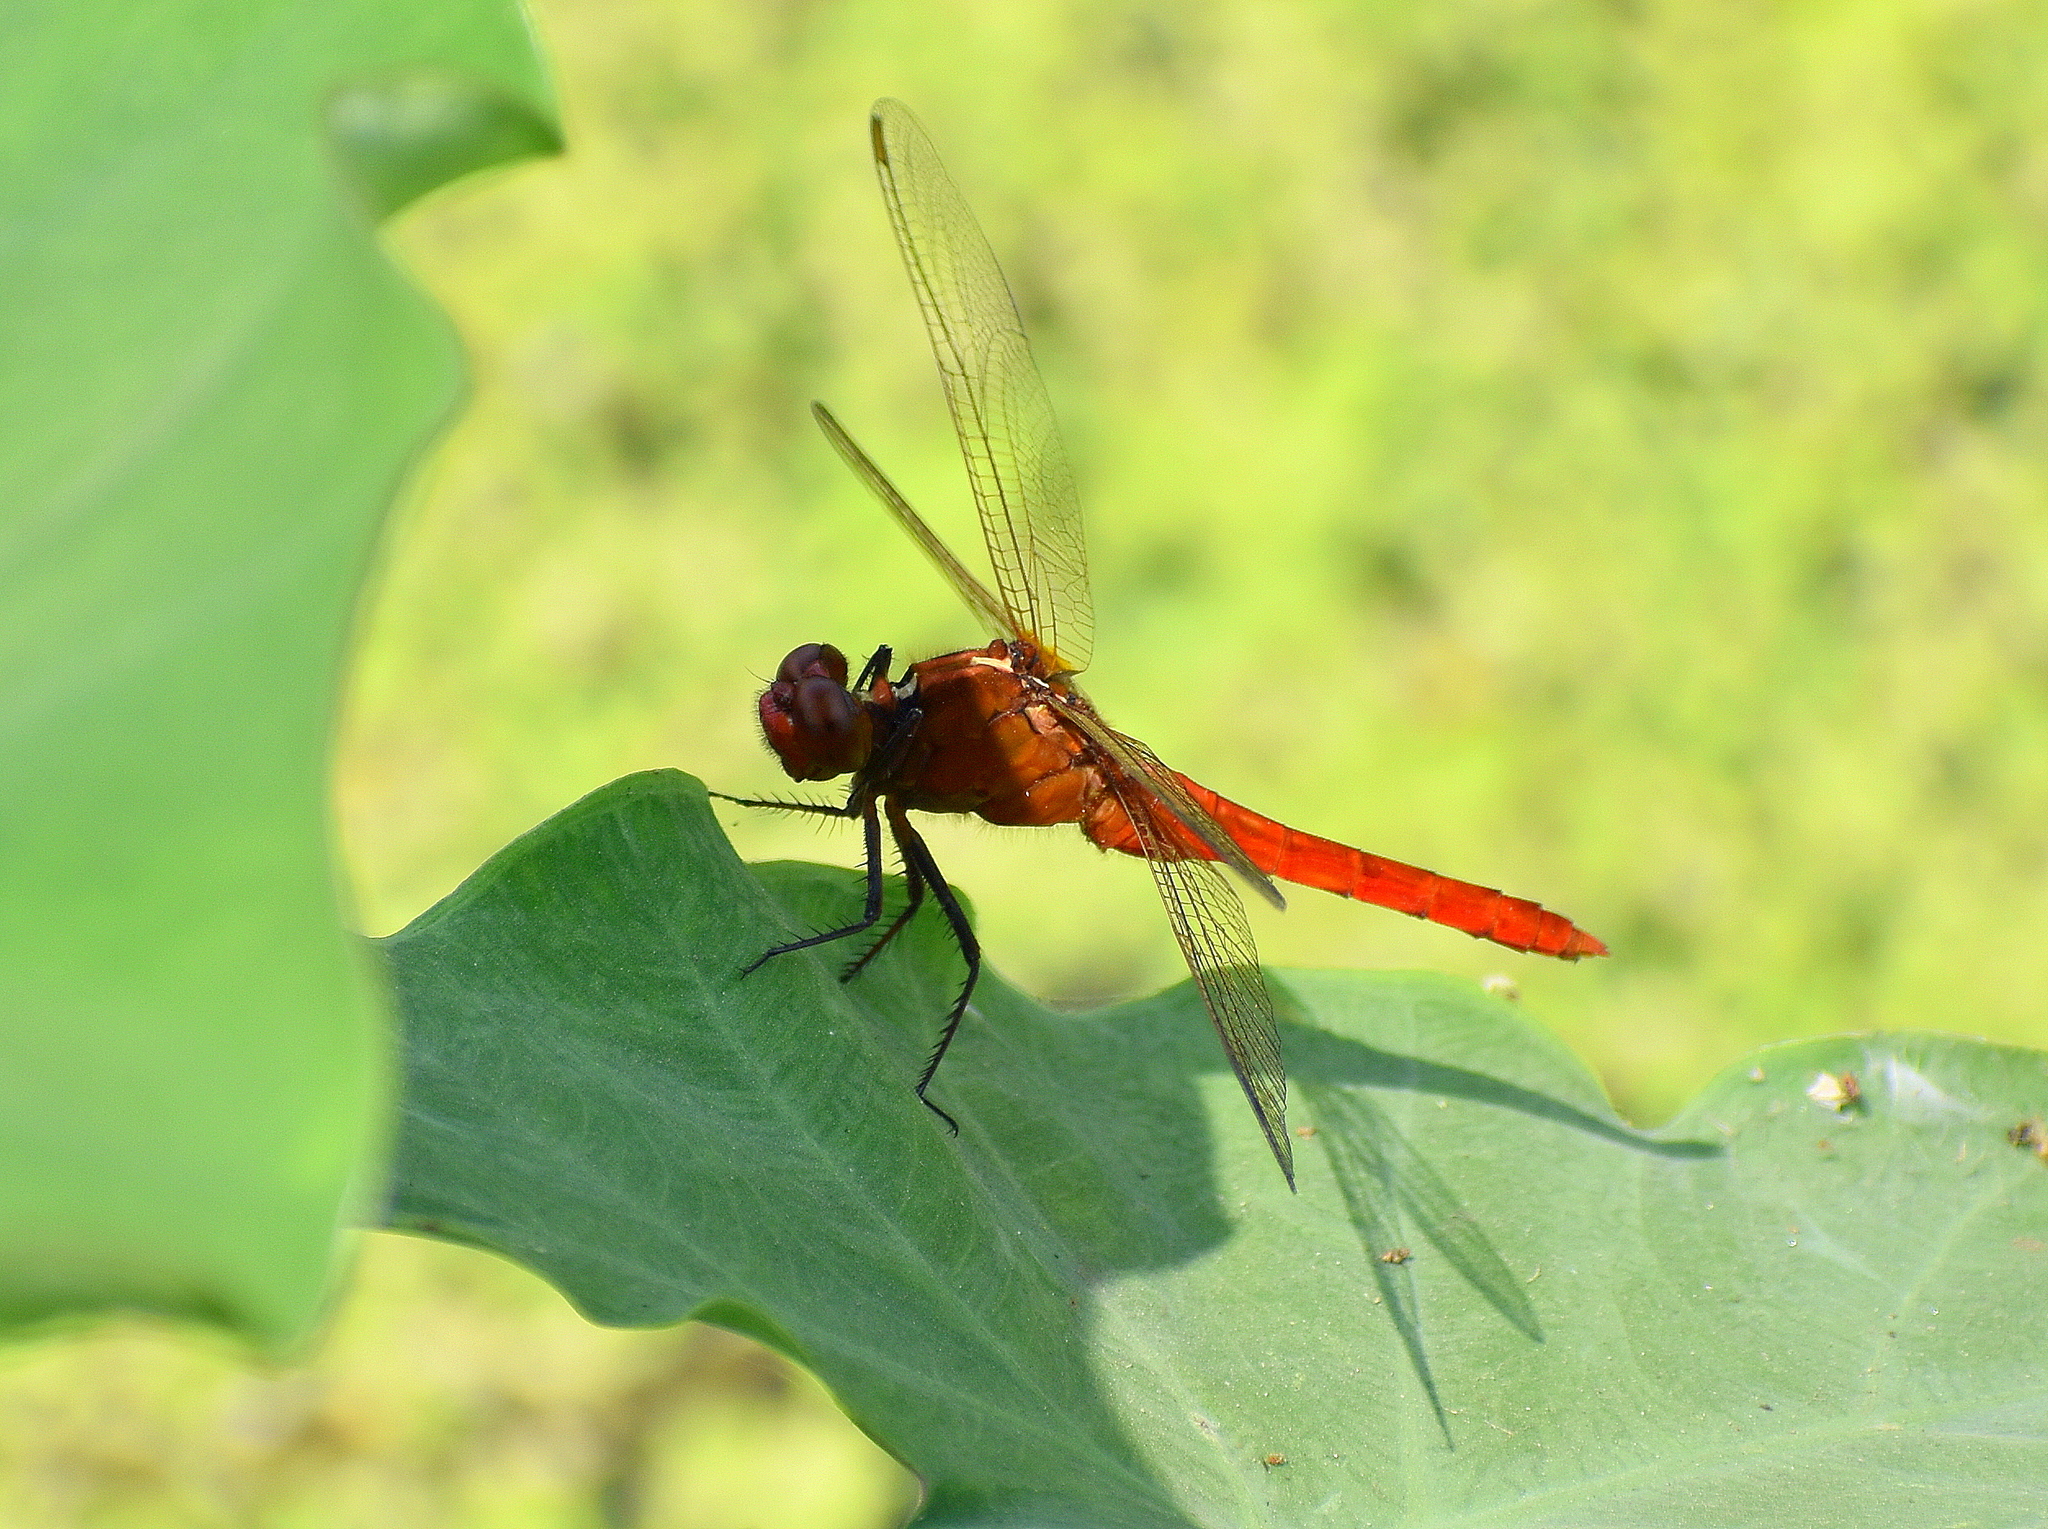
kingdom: Animalia
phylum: Arthropoda
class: Insecta
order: Odonata
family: Libellulidae
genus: Rhodothemis
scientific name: Rhodothemis rufa
